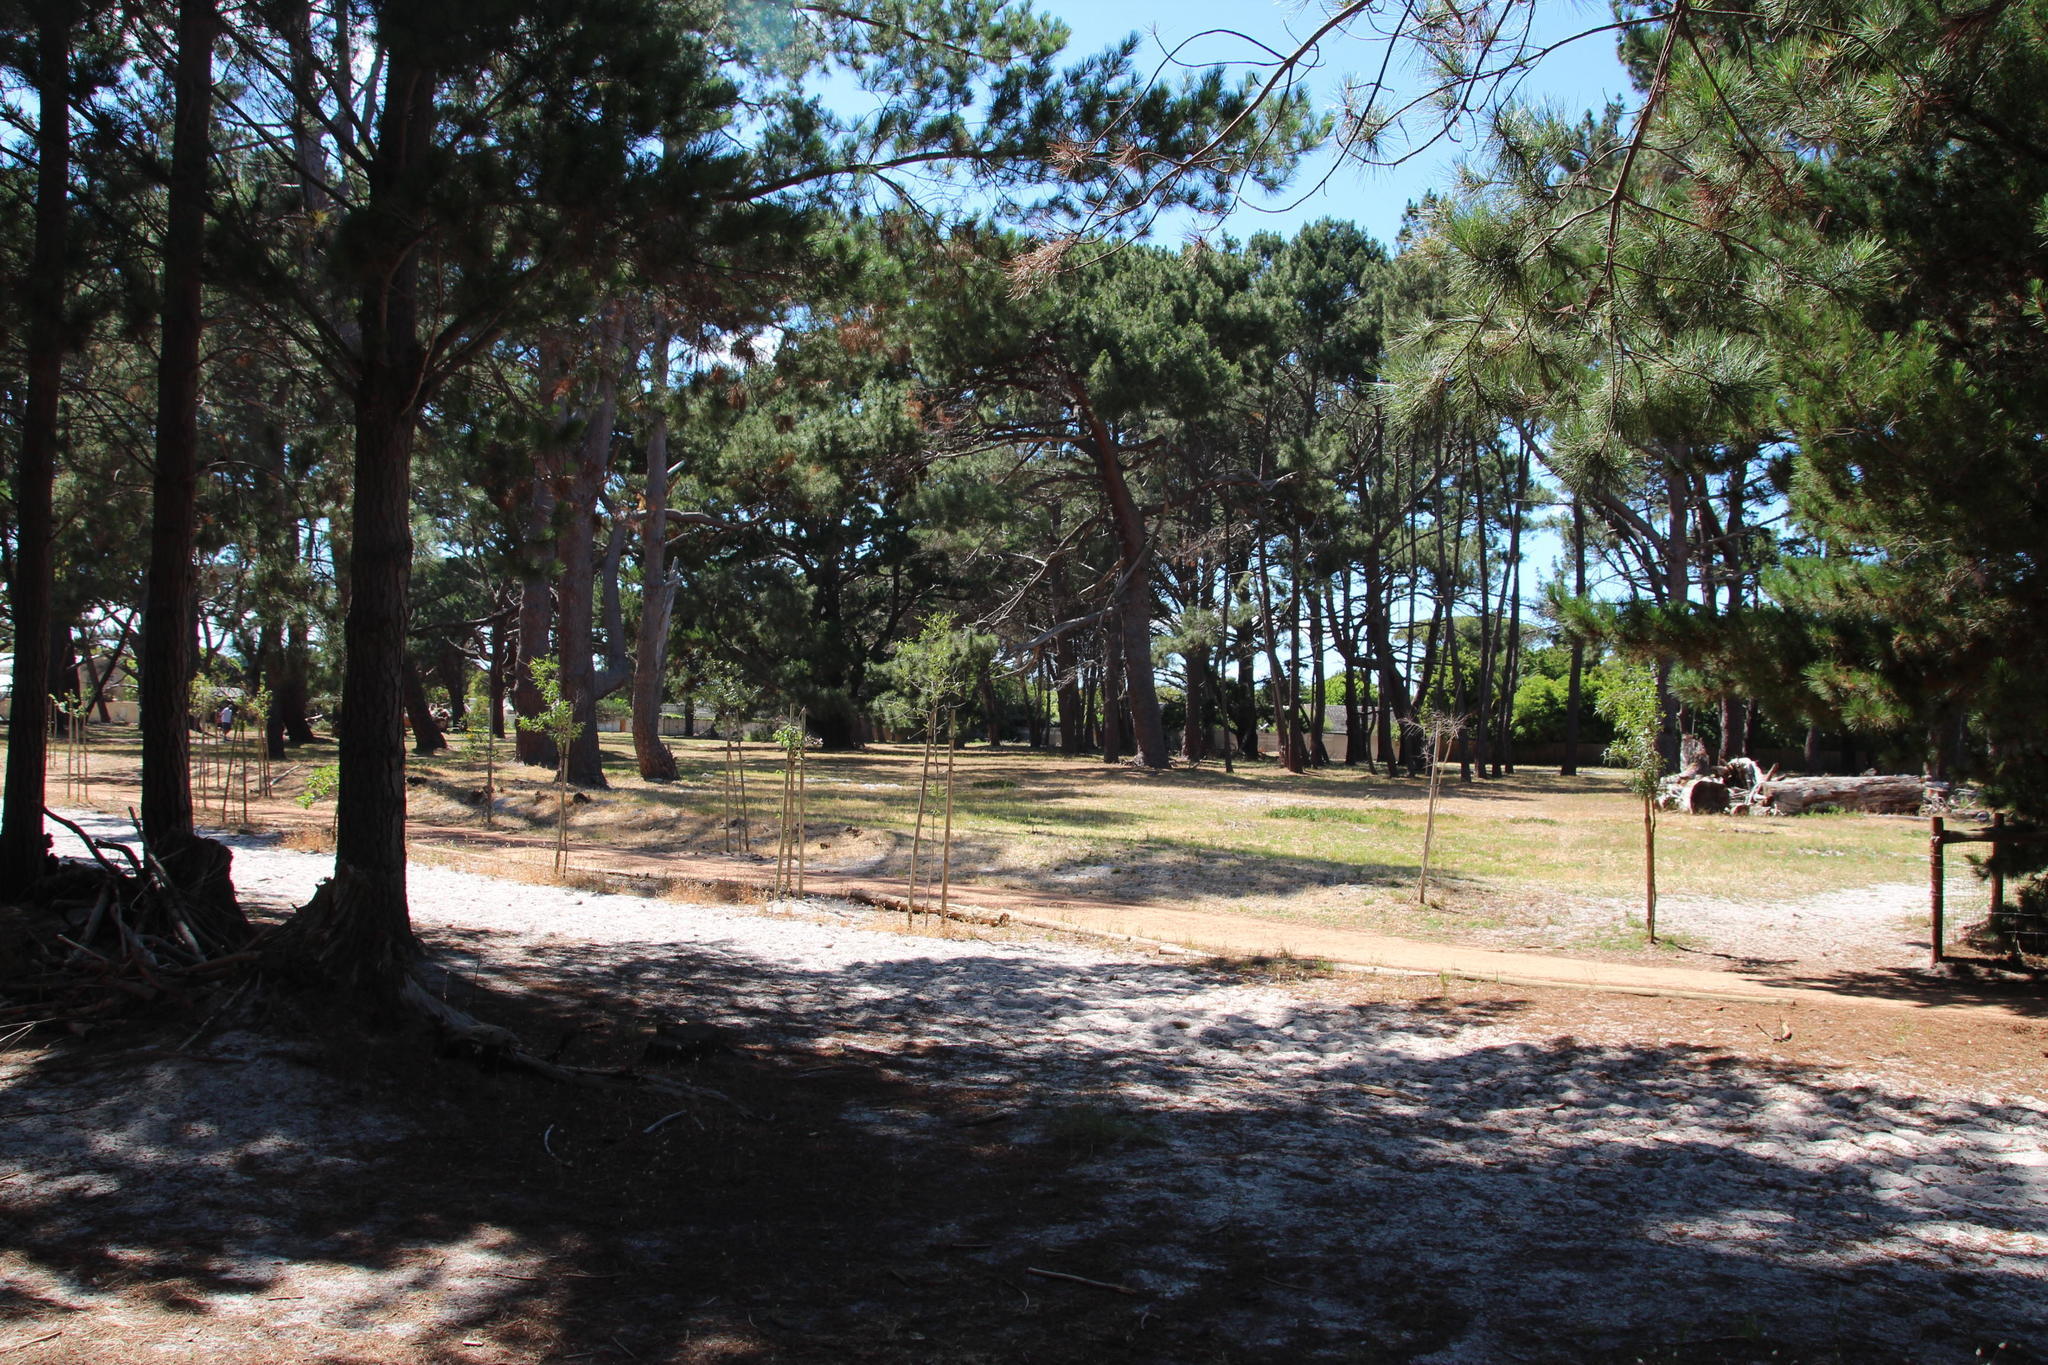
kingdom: Plantae
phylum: Tracheophyta
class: Pinopsida
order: Pinales
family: Pinaceae
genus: Pinus
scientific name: Pinus pinea
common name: Italian stone pine
